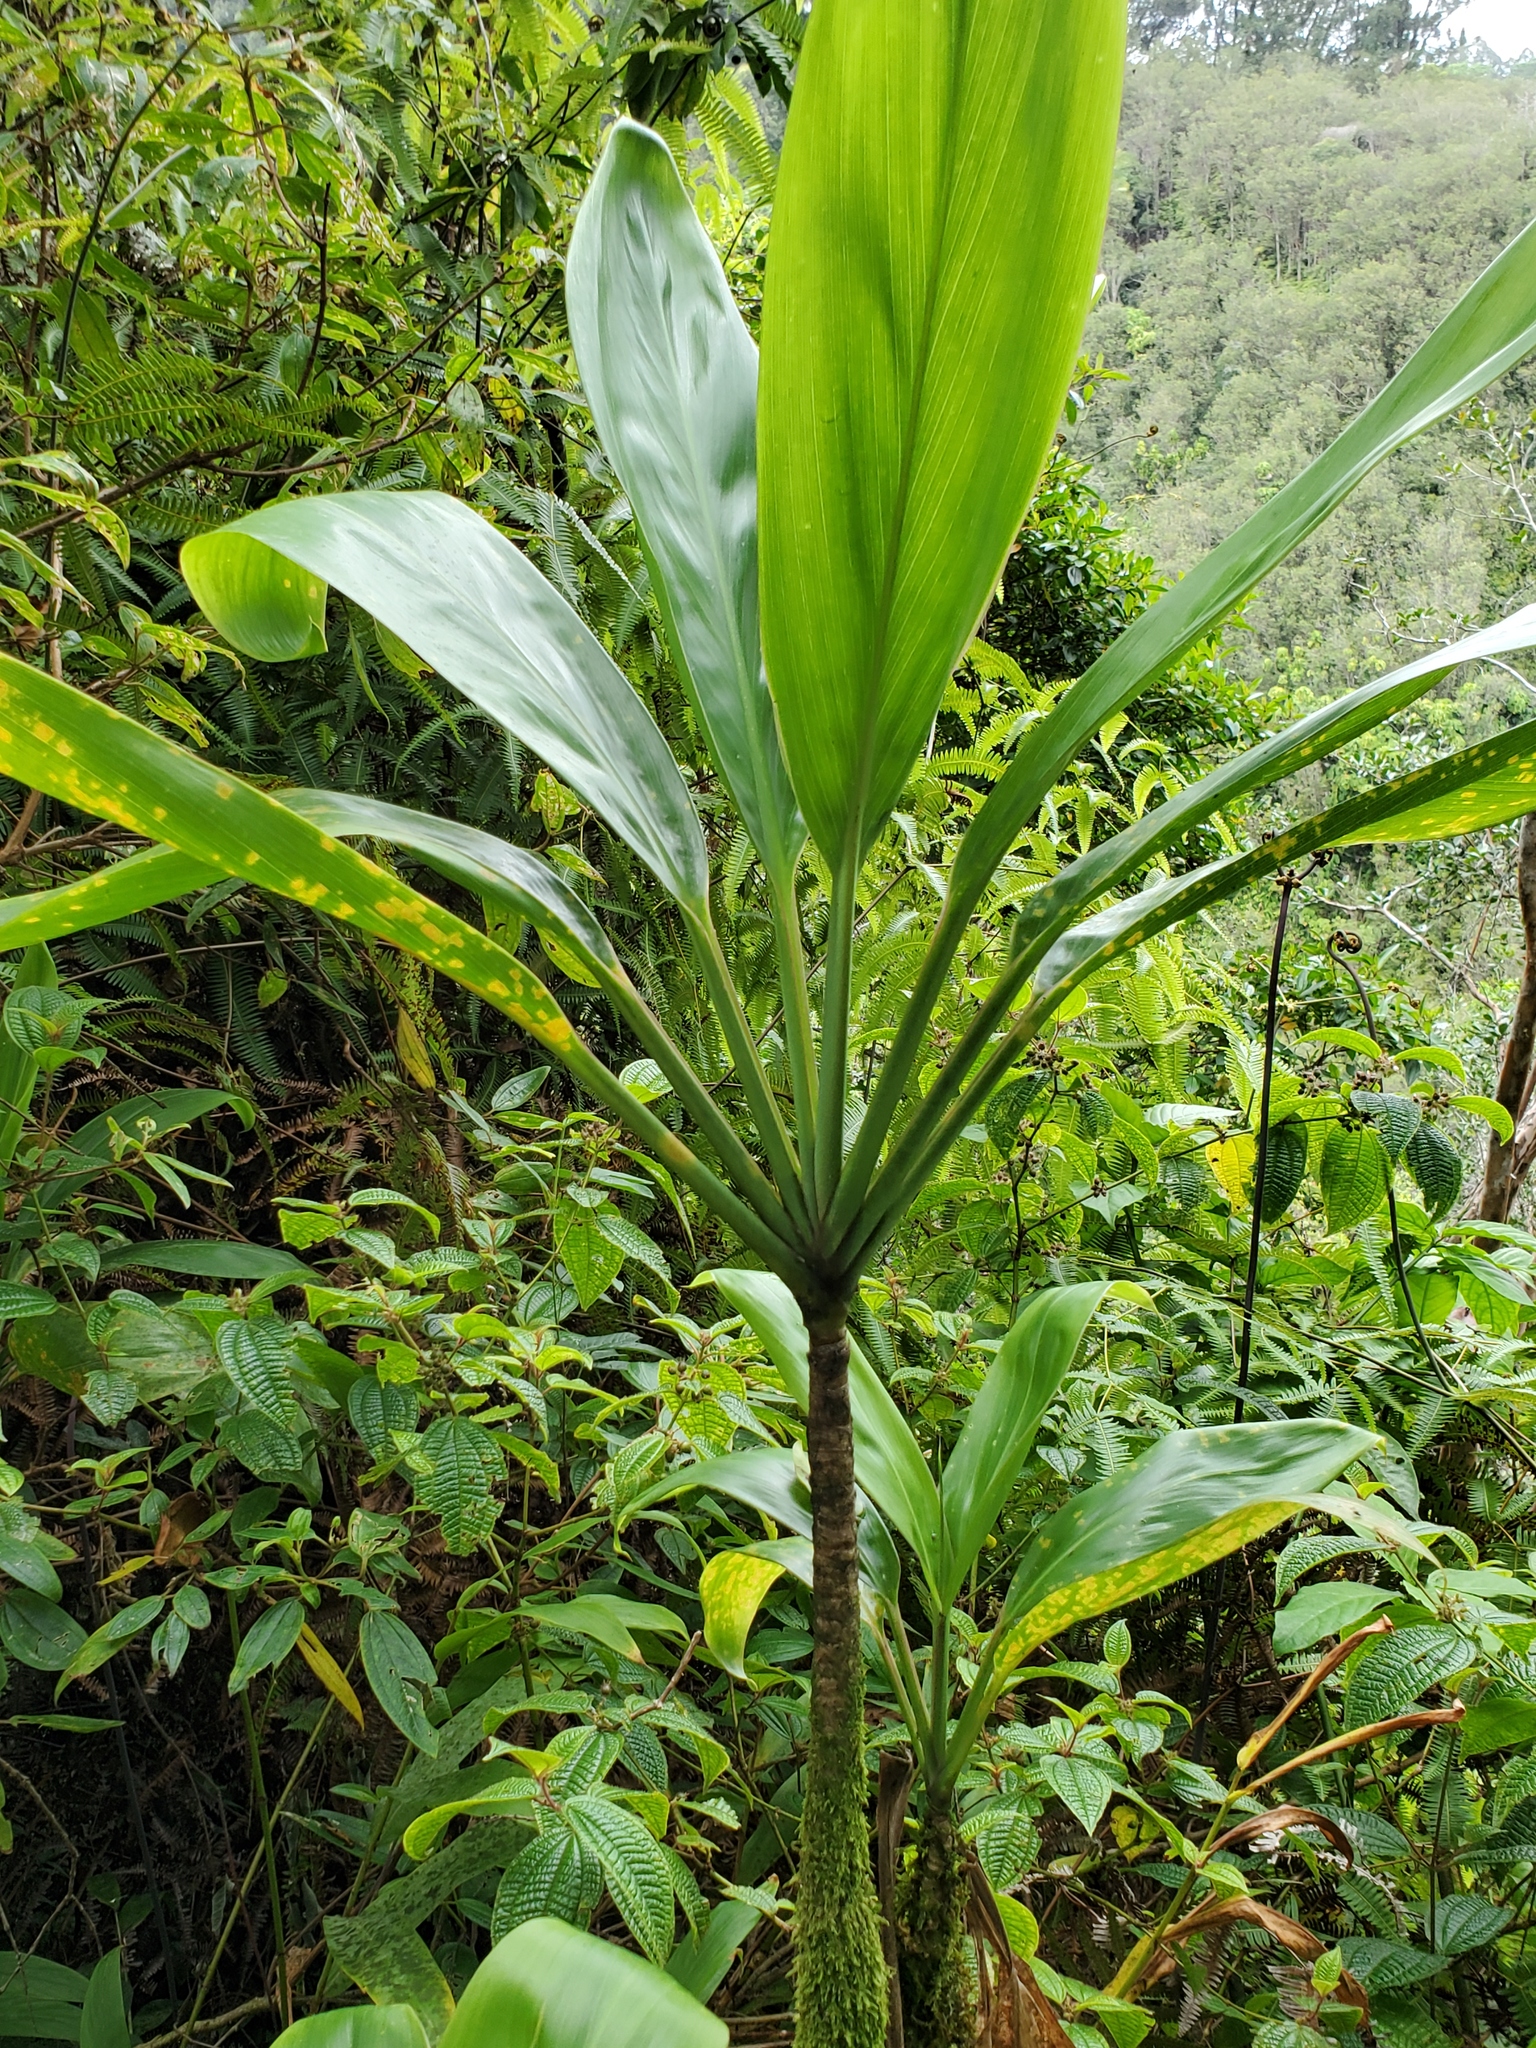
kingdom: Plantae
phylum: Tracheophyta
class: Liliopsida
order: Asparagales
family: Asparagaceae
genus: Cordyline
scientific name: Cordyline fruticosa
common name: Good-luck-plant
